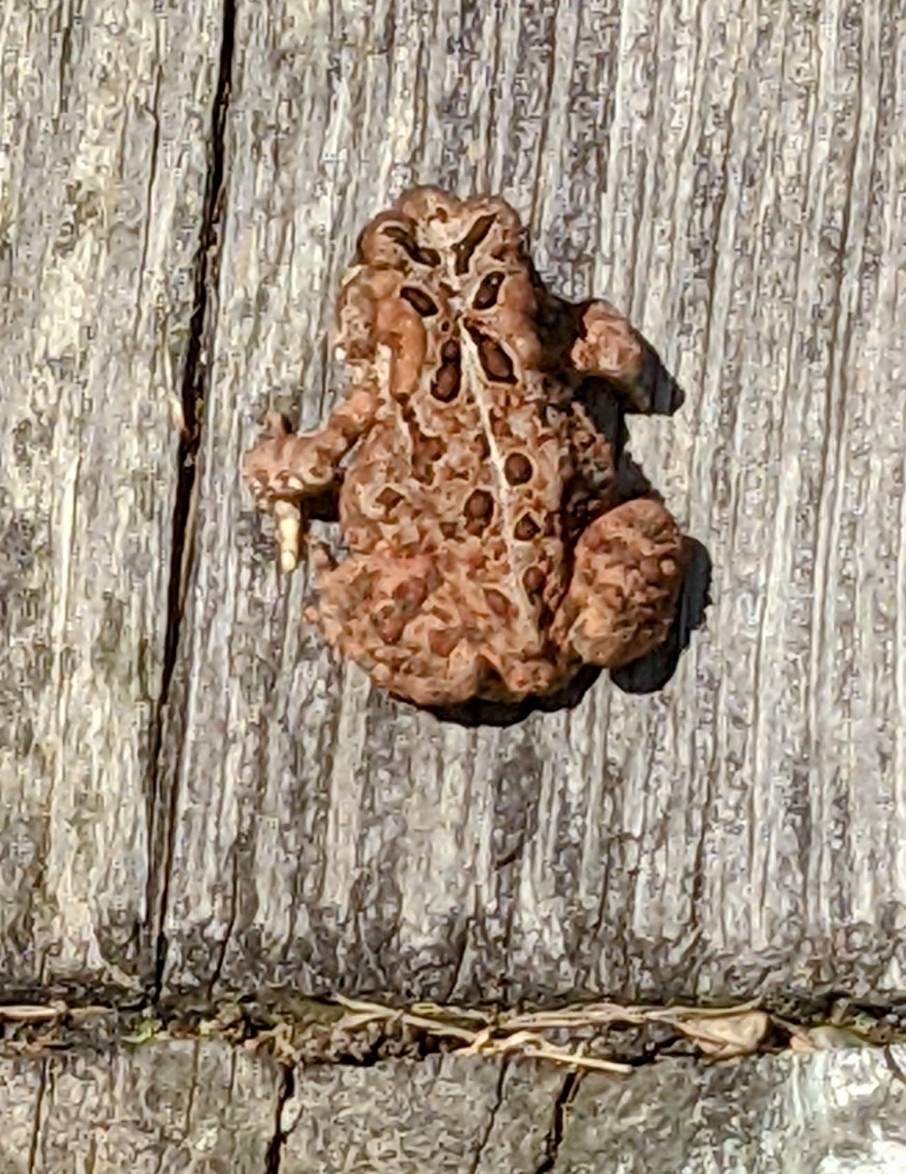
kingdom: Animalia
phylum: Chordata
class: Amphibia
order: Anura
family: Bufonidae
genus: Anaxyrus
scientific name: Anaxyrus americanus
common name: American toad
